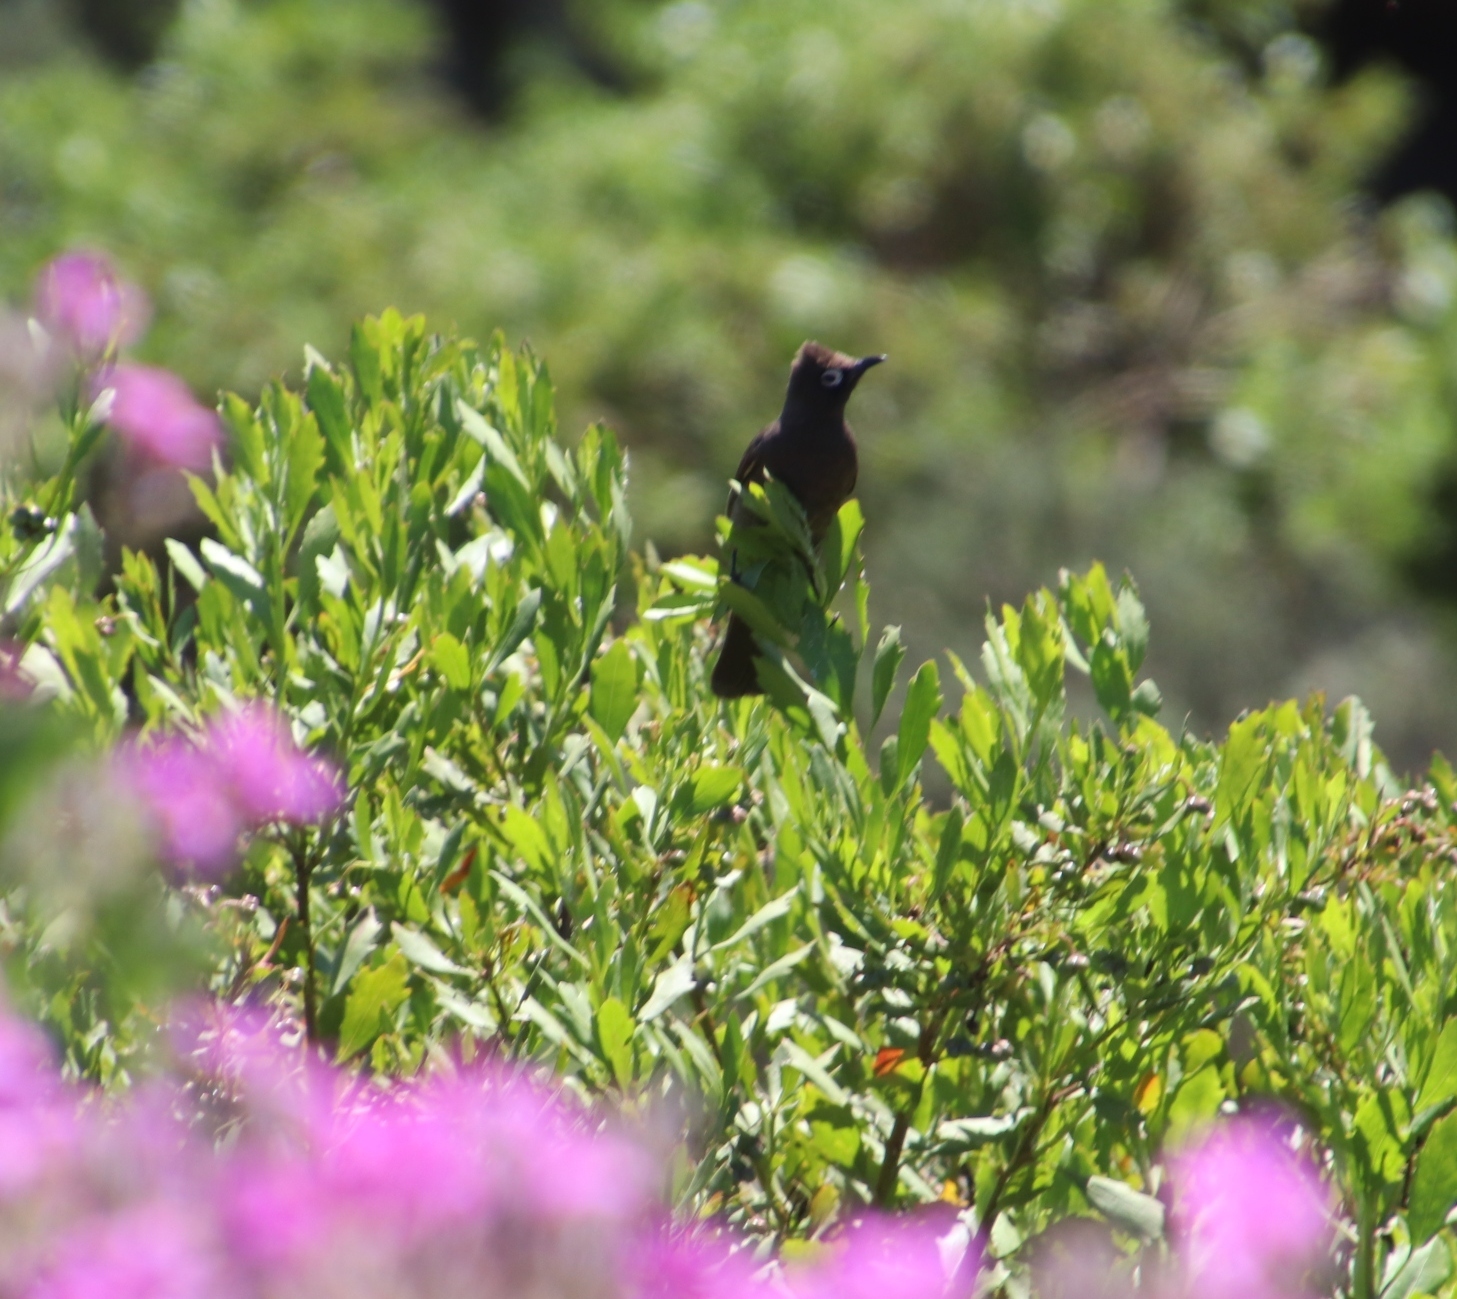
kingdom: Animalia
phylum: Chordata
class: Aves
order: Passeriformes
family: Pycnonotidae
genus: Pycnonotus
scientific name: Pycnonotus capensis
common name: Cape bulbul
